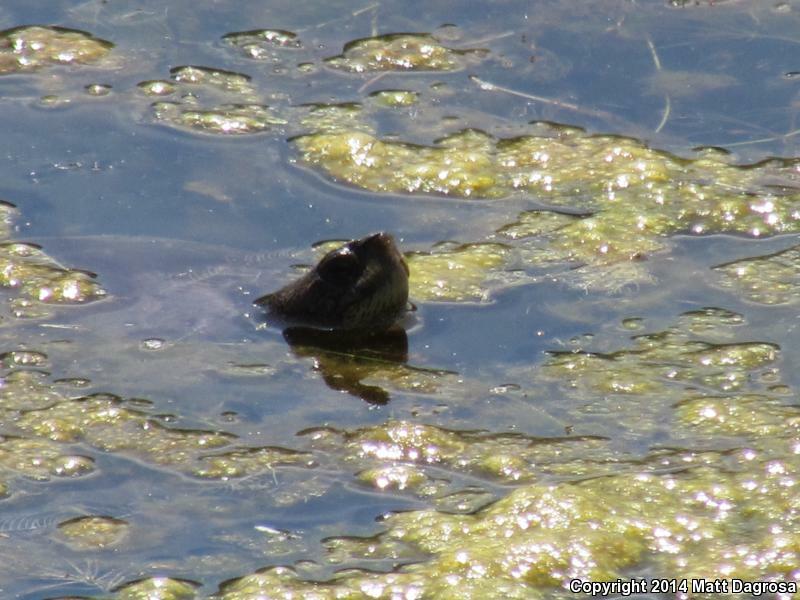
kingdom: Animalia
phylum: Chordata
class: Testudines
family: Emydidae
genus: Actinemys
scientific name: Actinemys marmorata
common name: Western pond turtle
